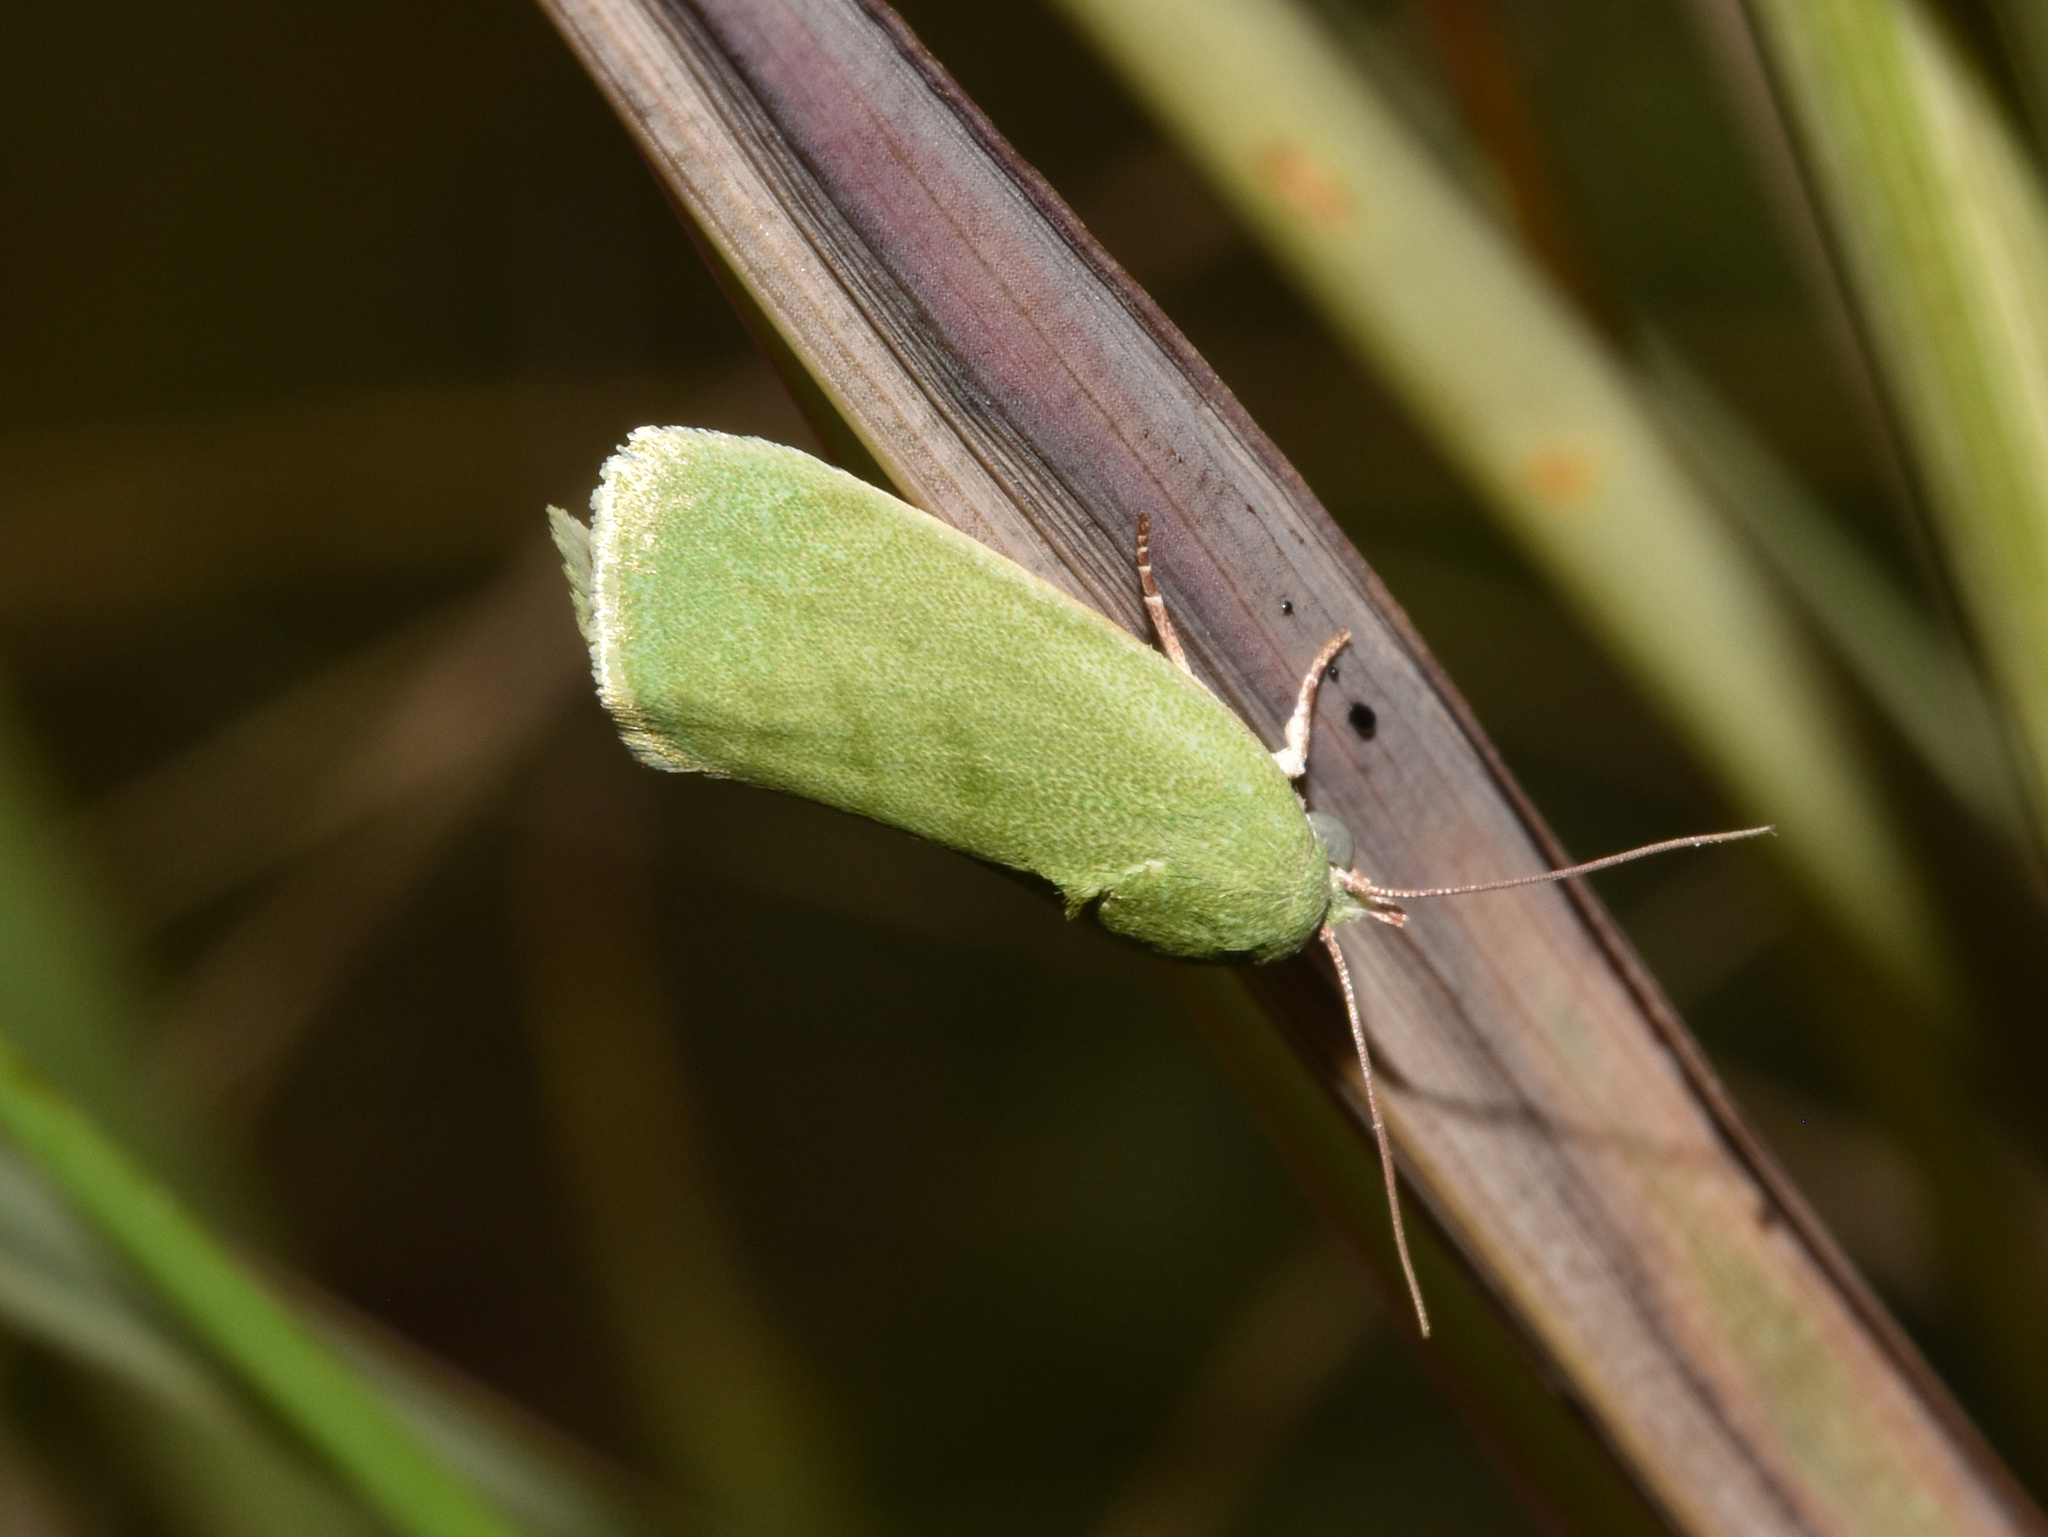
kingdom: Animalia
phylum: Arthropoda
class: Insecta
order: Lepidoptera
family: Nolidae
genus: Earias
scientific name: Earias insulana
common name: Egyptian bollworm
